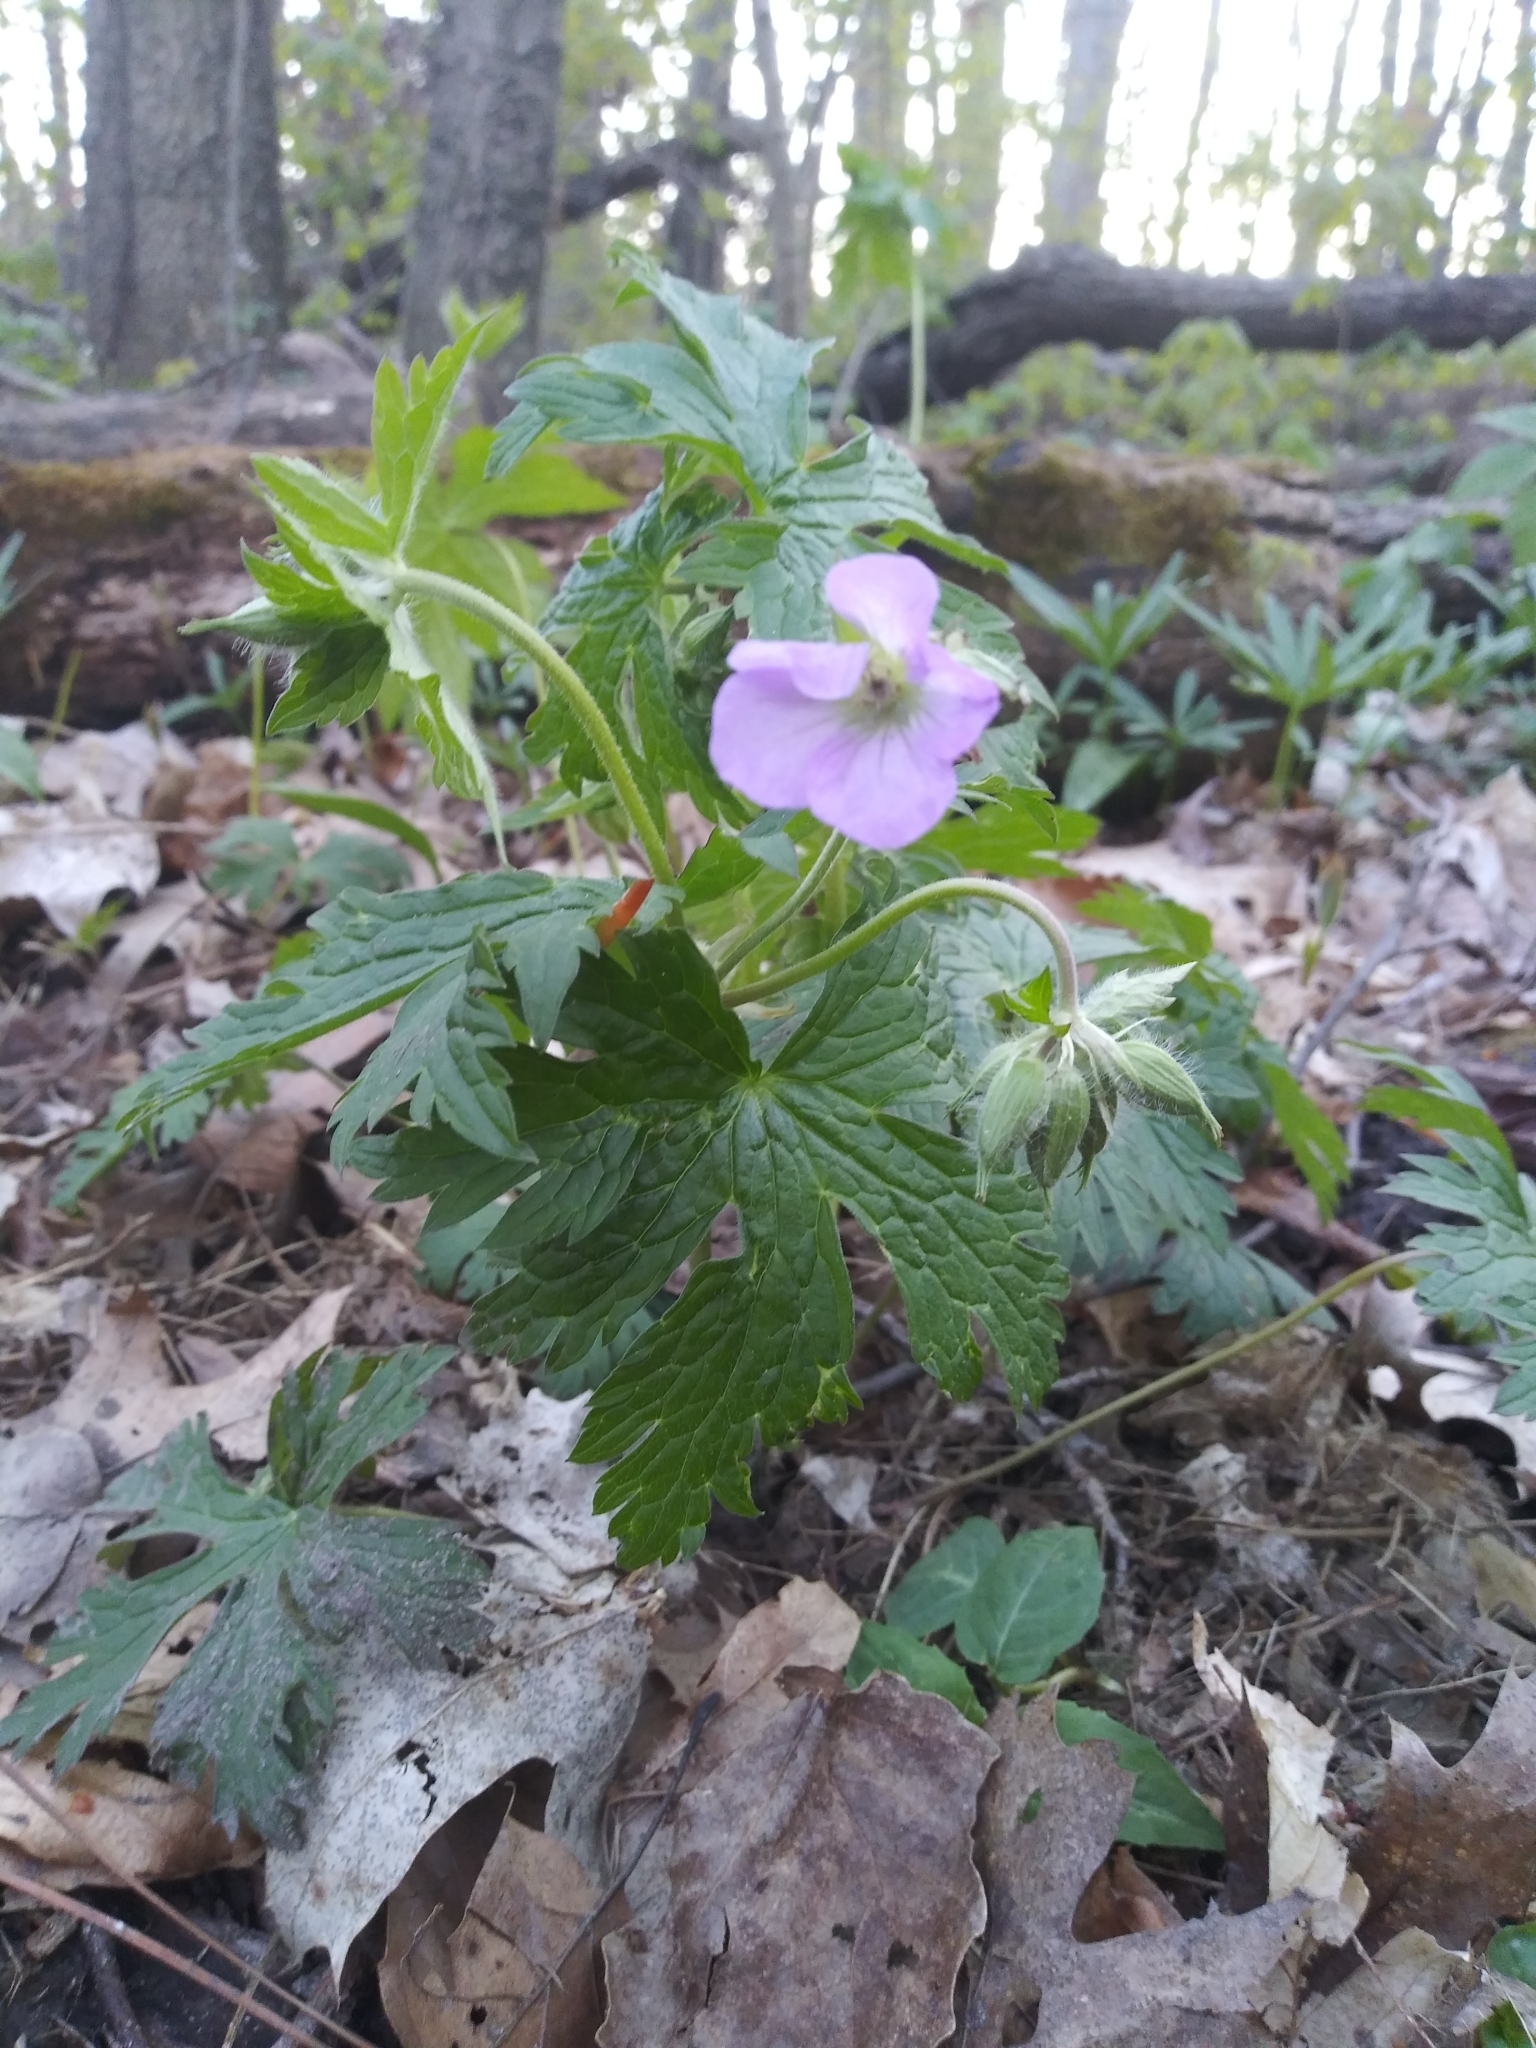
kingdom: Plantae
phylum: Tracheophyta
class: Magnoliopsida
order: Geraniales
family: Geraniaceae
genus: Geranium
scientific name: Geranium maculatum
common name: Spotted geranium
